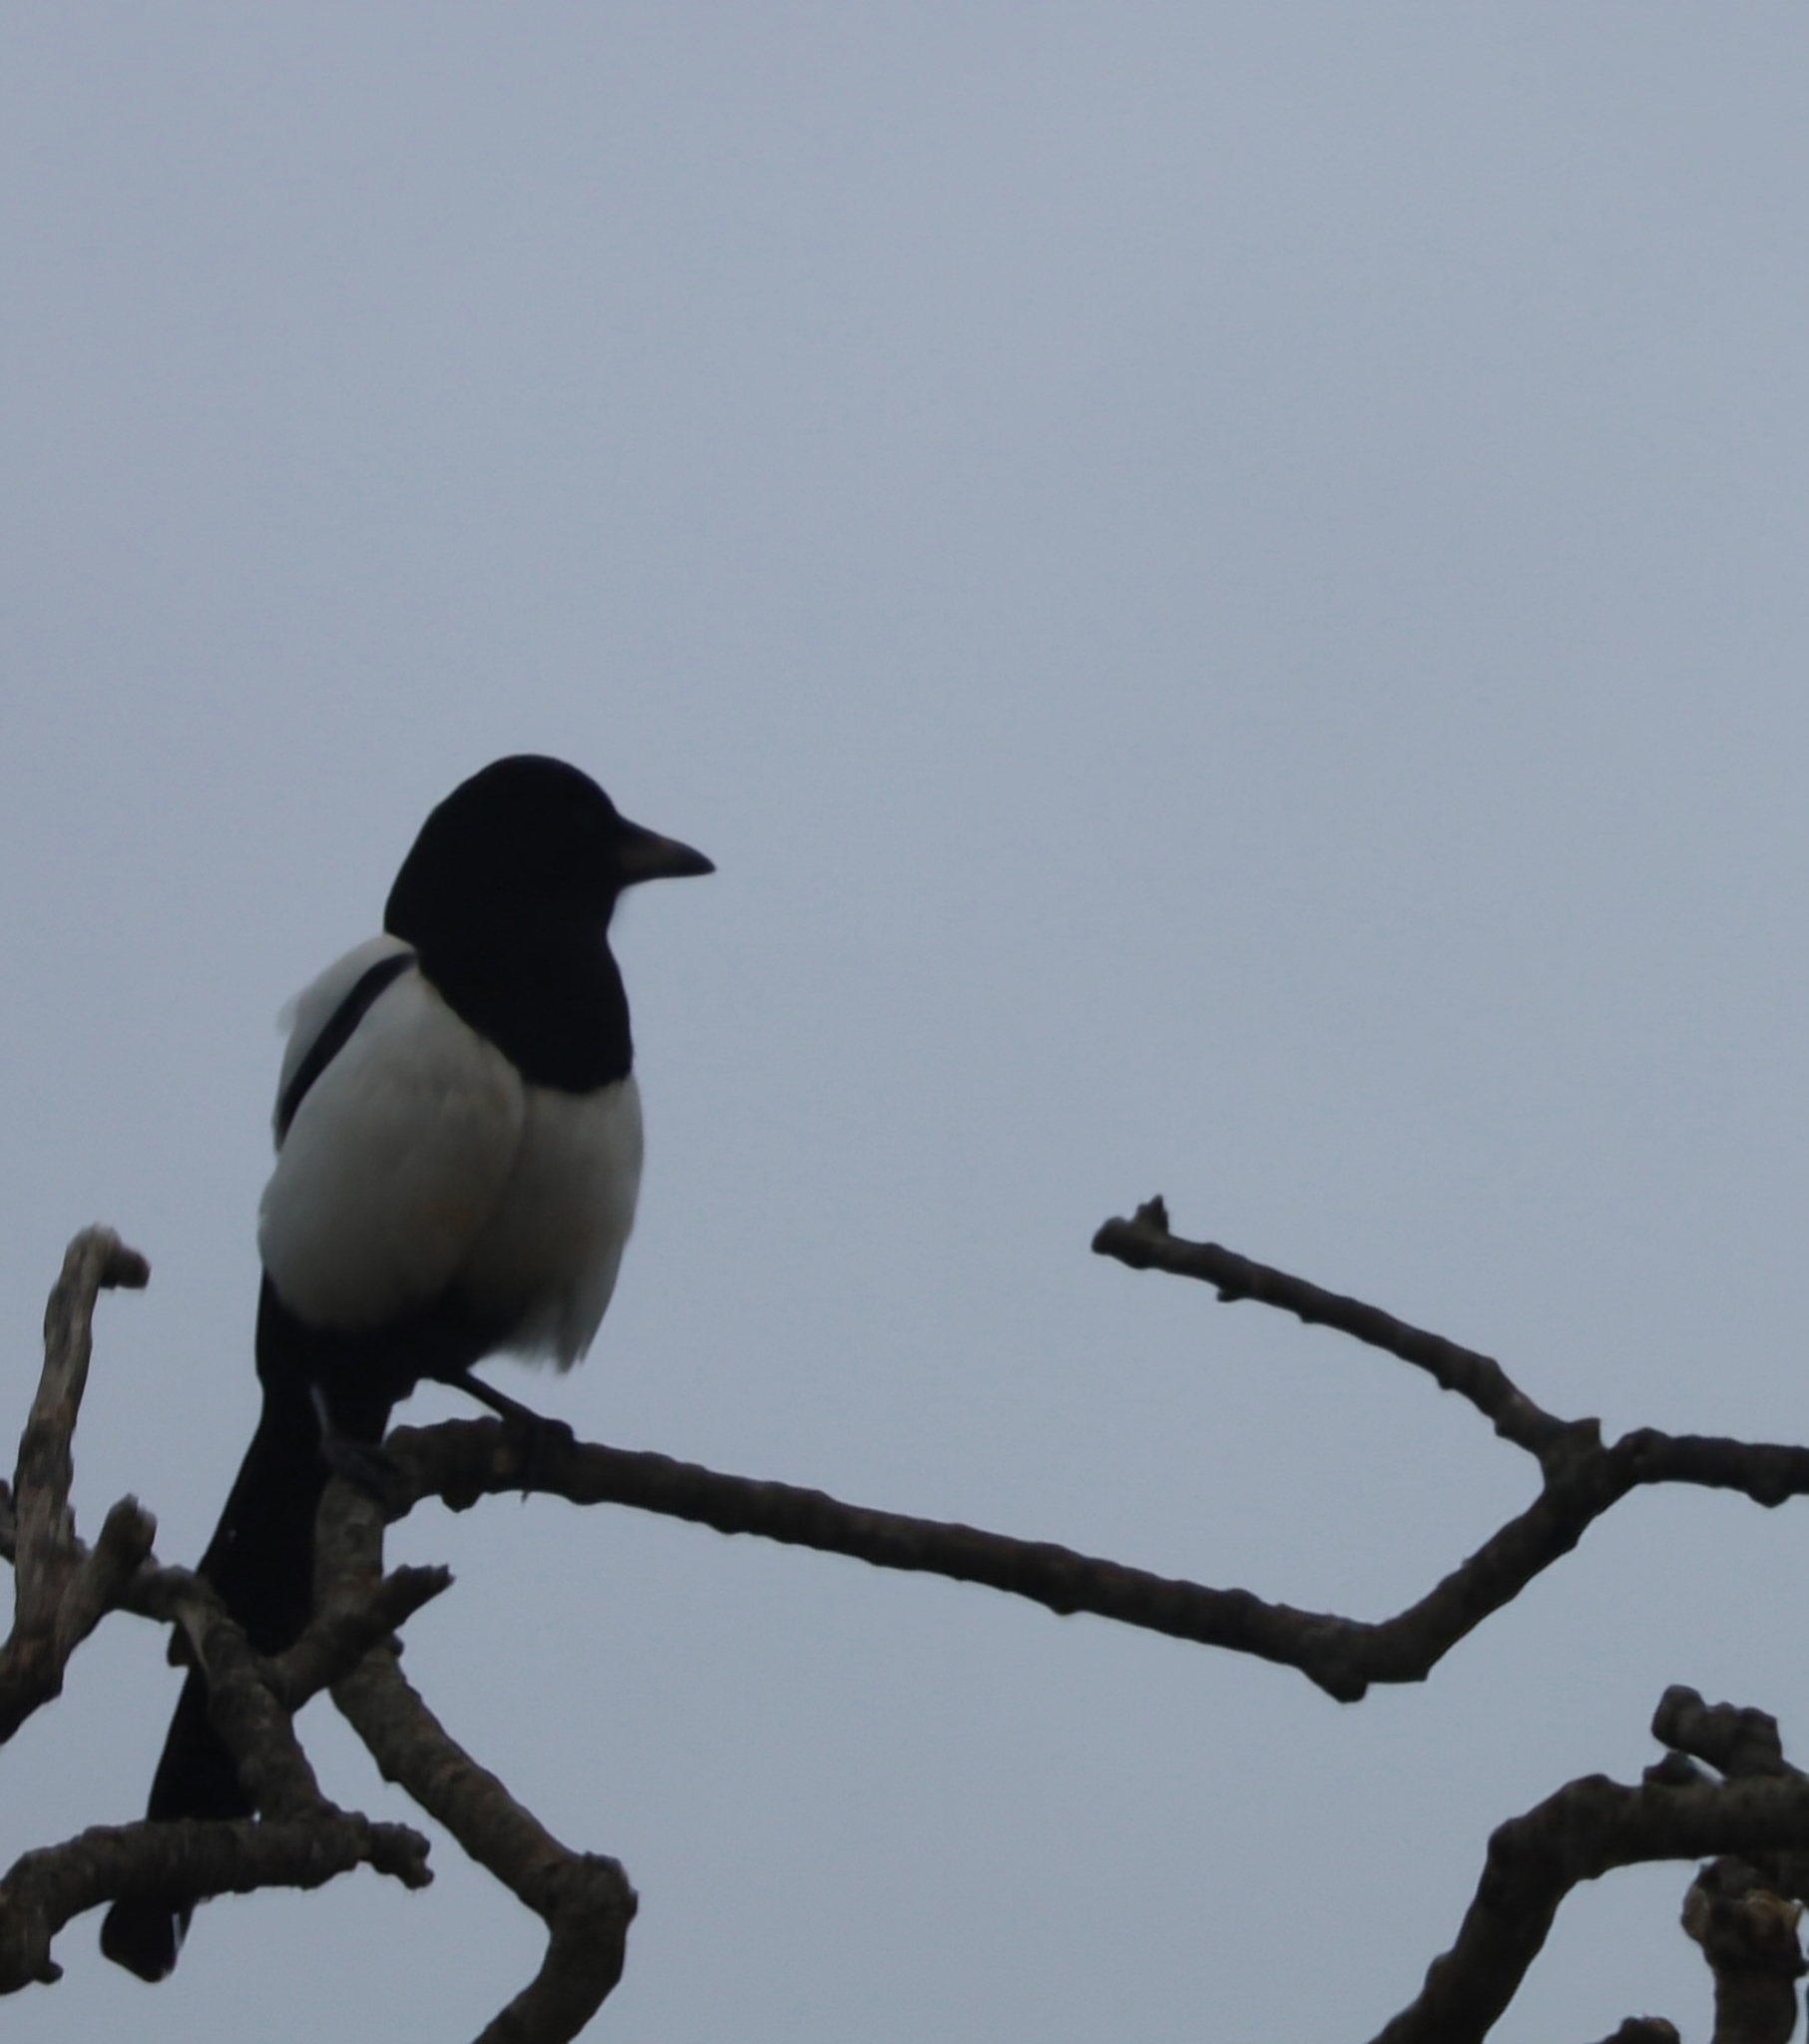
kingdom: Animalia
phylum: Chordata
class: Aves
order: Passeriformes
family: Corvidae
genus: Pica
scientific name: Pica pica
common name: Eurasian magpie
